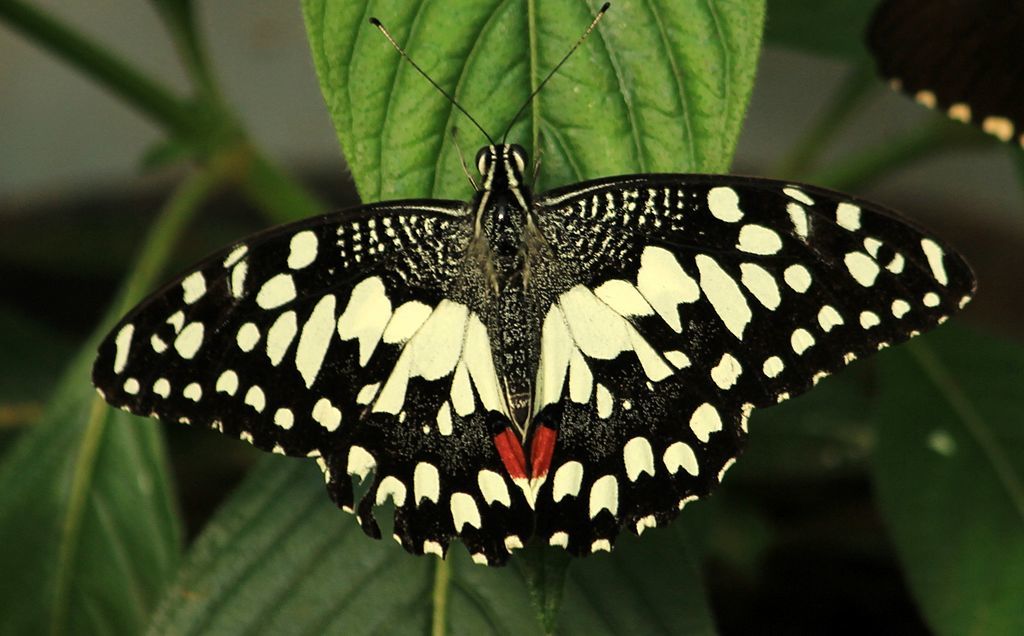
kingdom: Animalia
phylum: Arthropoda
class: Insecta
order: Lepidoptera
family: Papilionidae
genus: Papilio
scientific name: Papilio demoleus
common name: Lime butterfly
